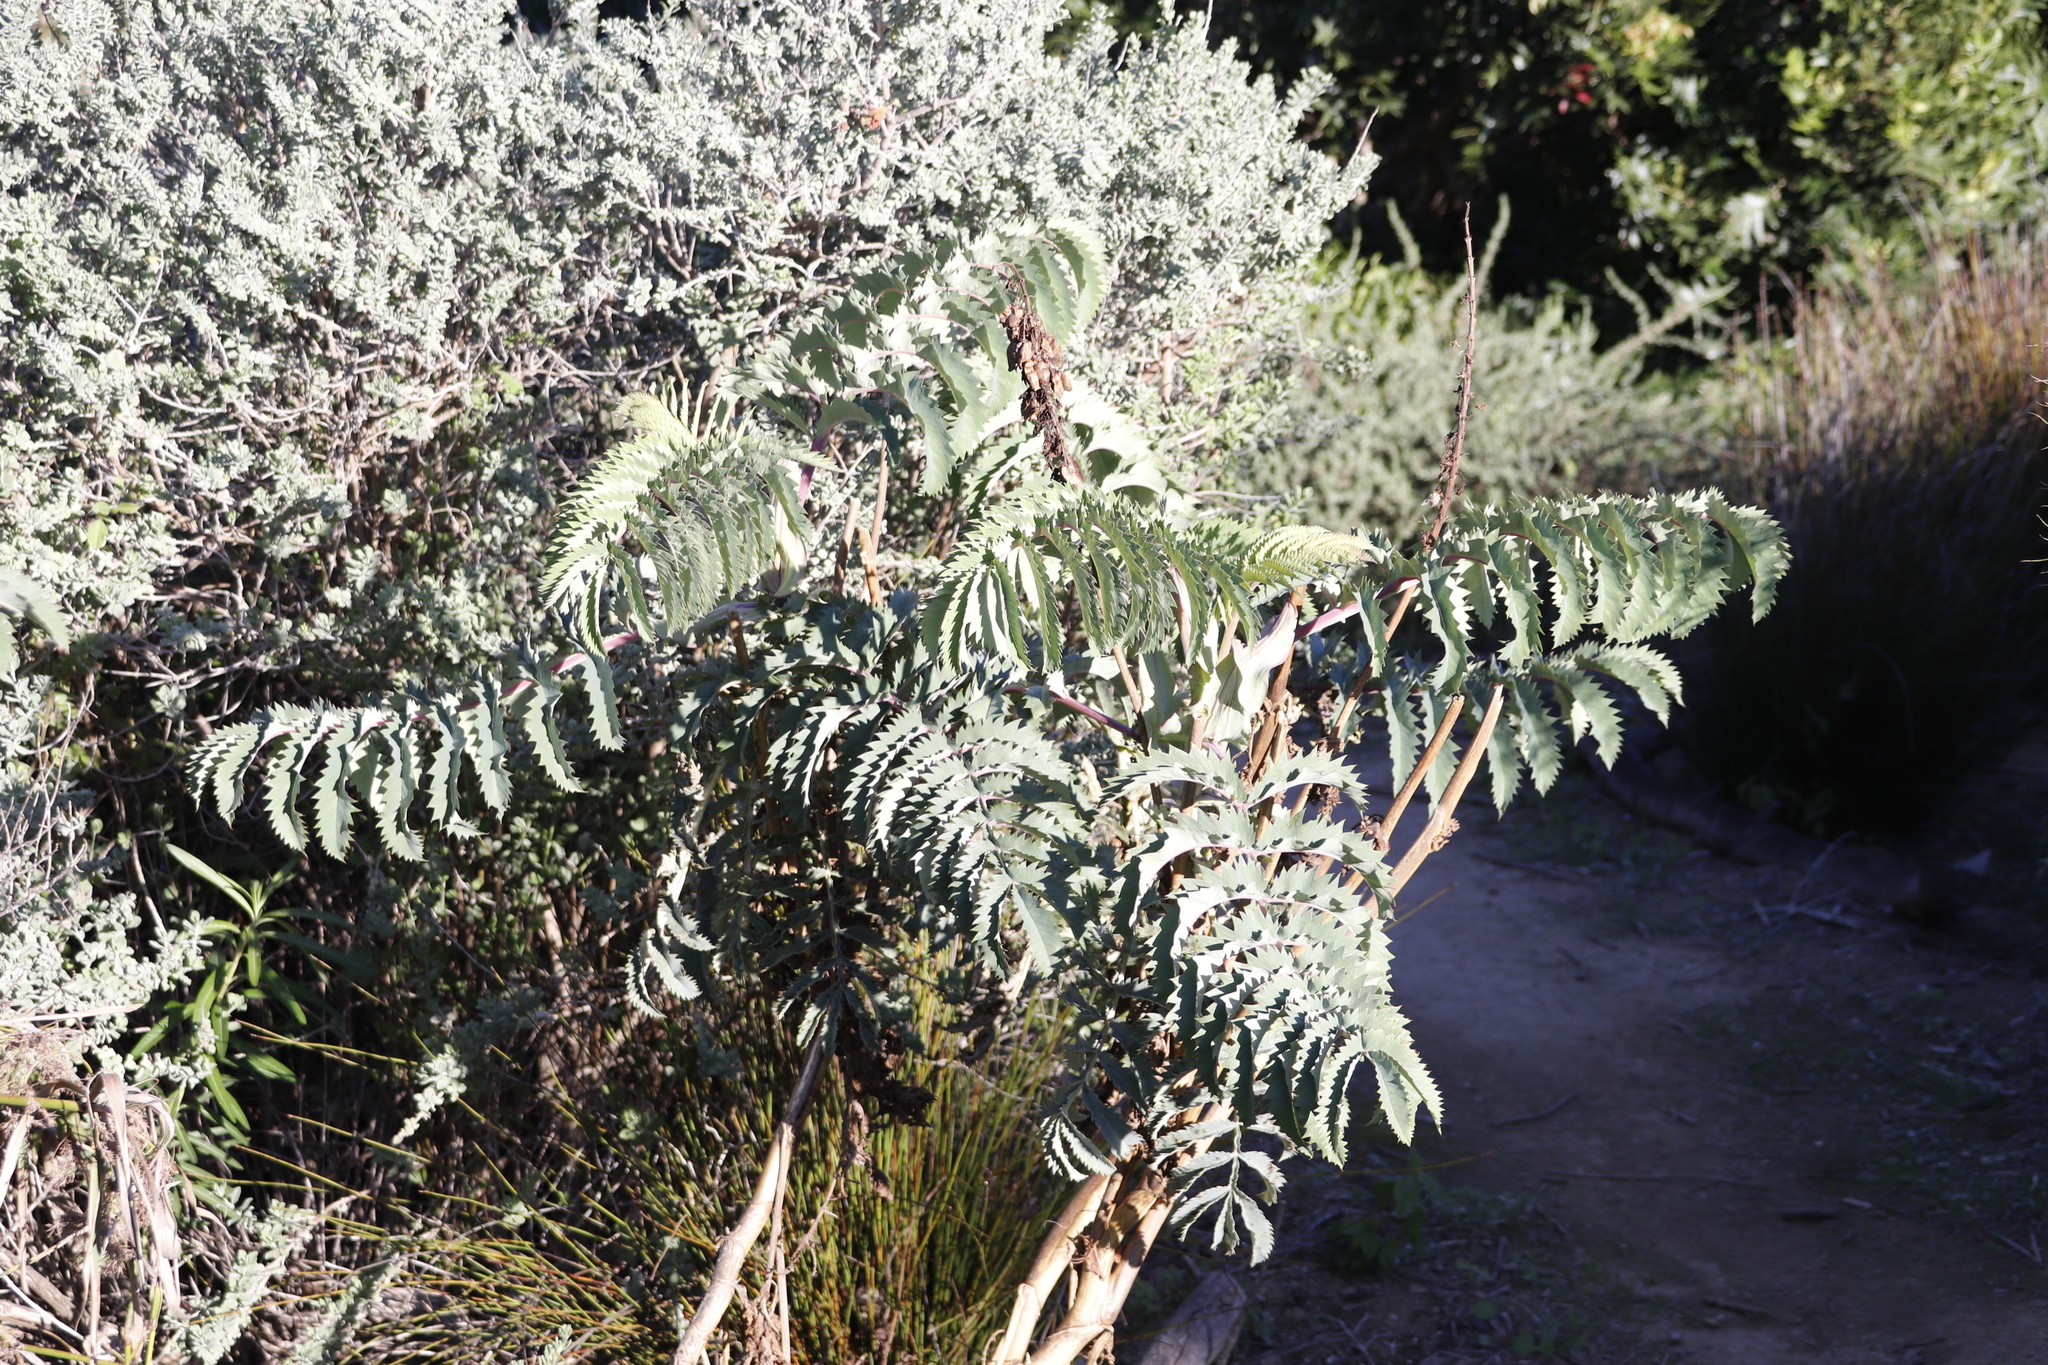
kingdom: Plantae
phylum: Tracheophyta
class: Magnoliopsida
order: Geraniales
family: Melianthaceae
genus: Melianthus
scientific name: Melianthus major
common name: Honey-flower
